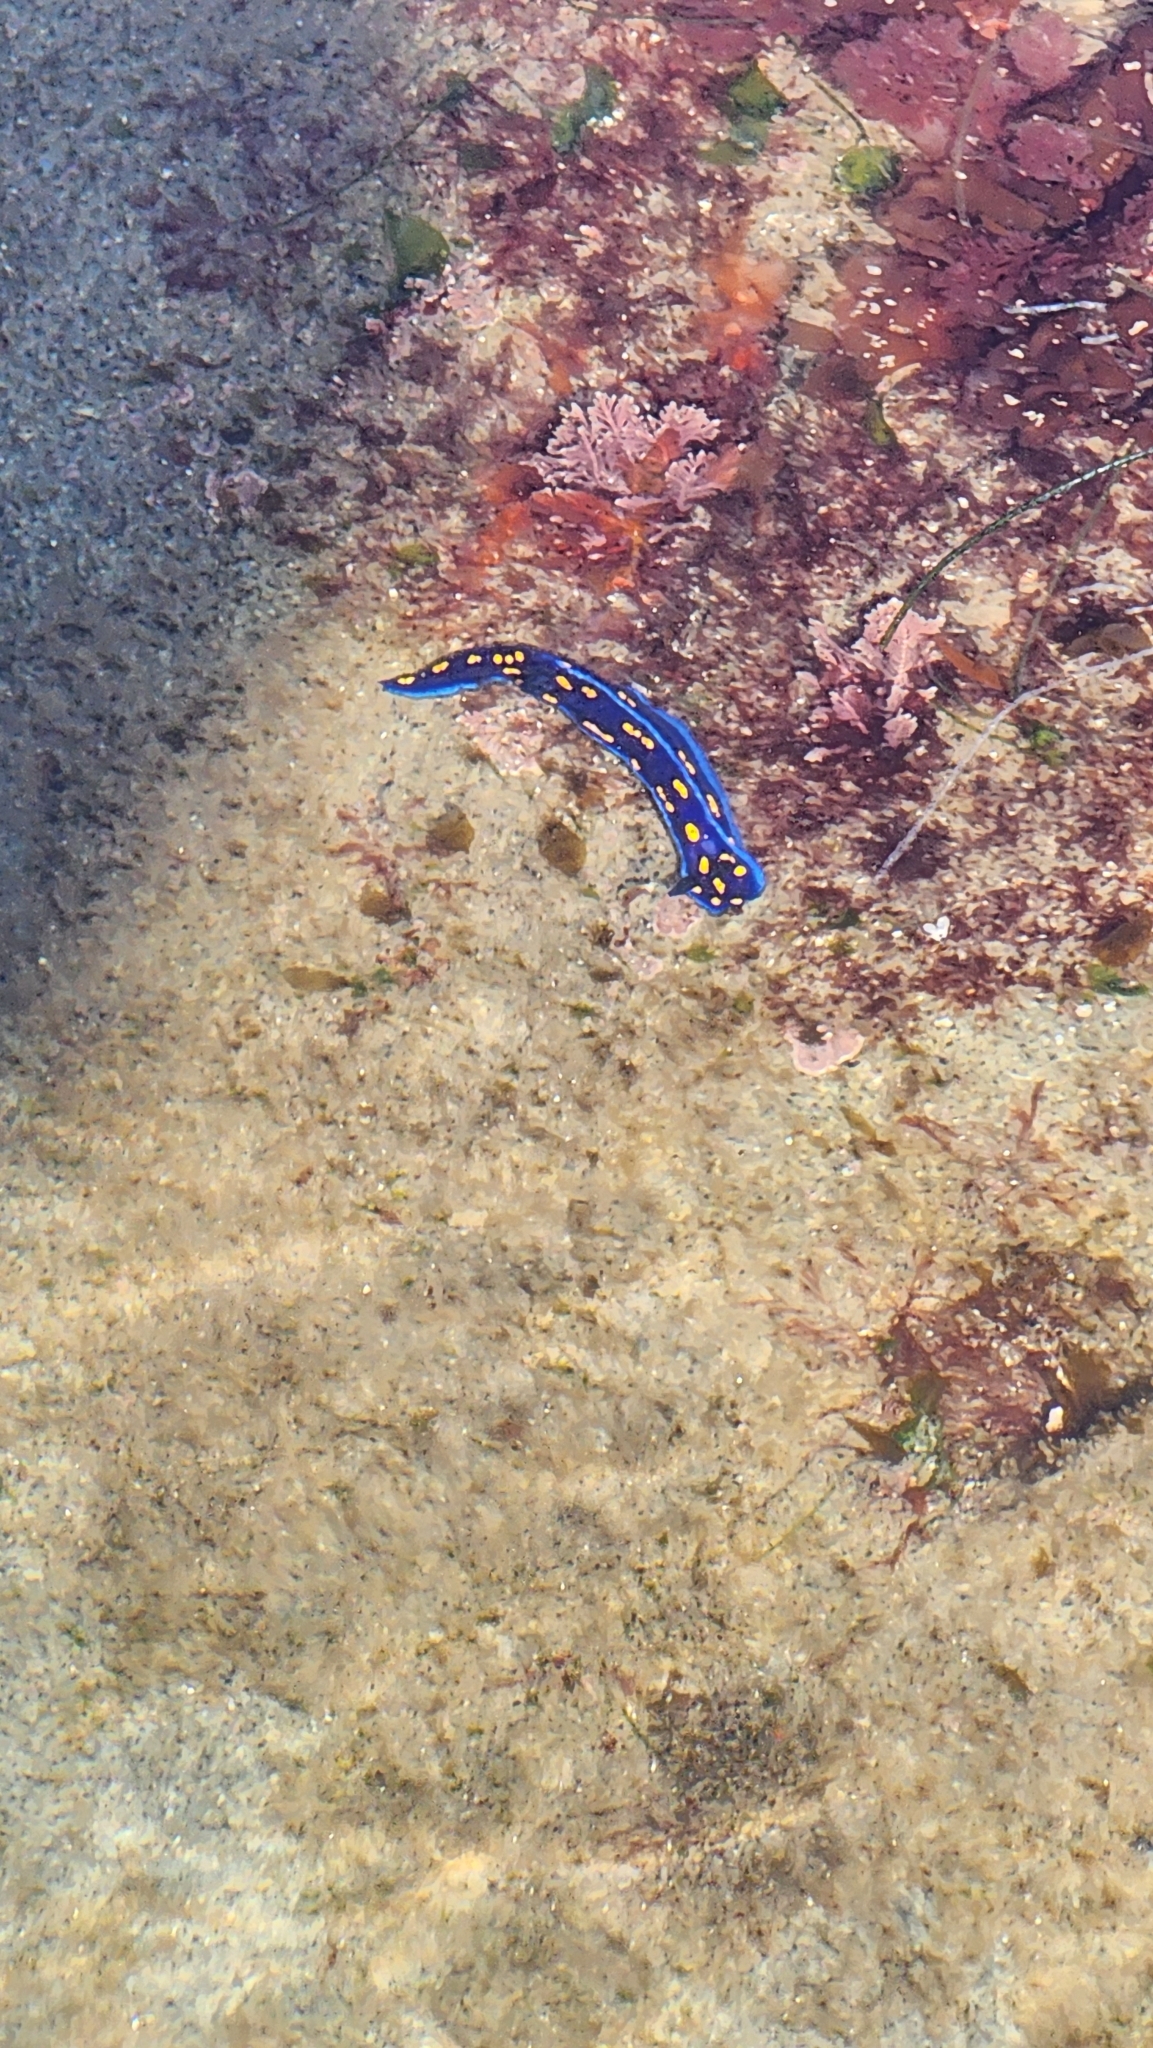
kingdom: Animalia
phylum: Mollusca
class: Gastropoda
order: Nudibranchia
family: Chromodorididae
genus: Felimare
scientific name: Felimare californiensis
